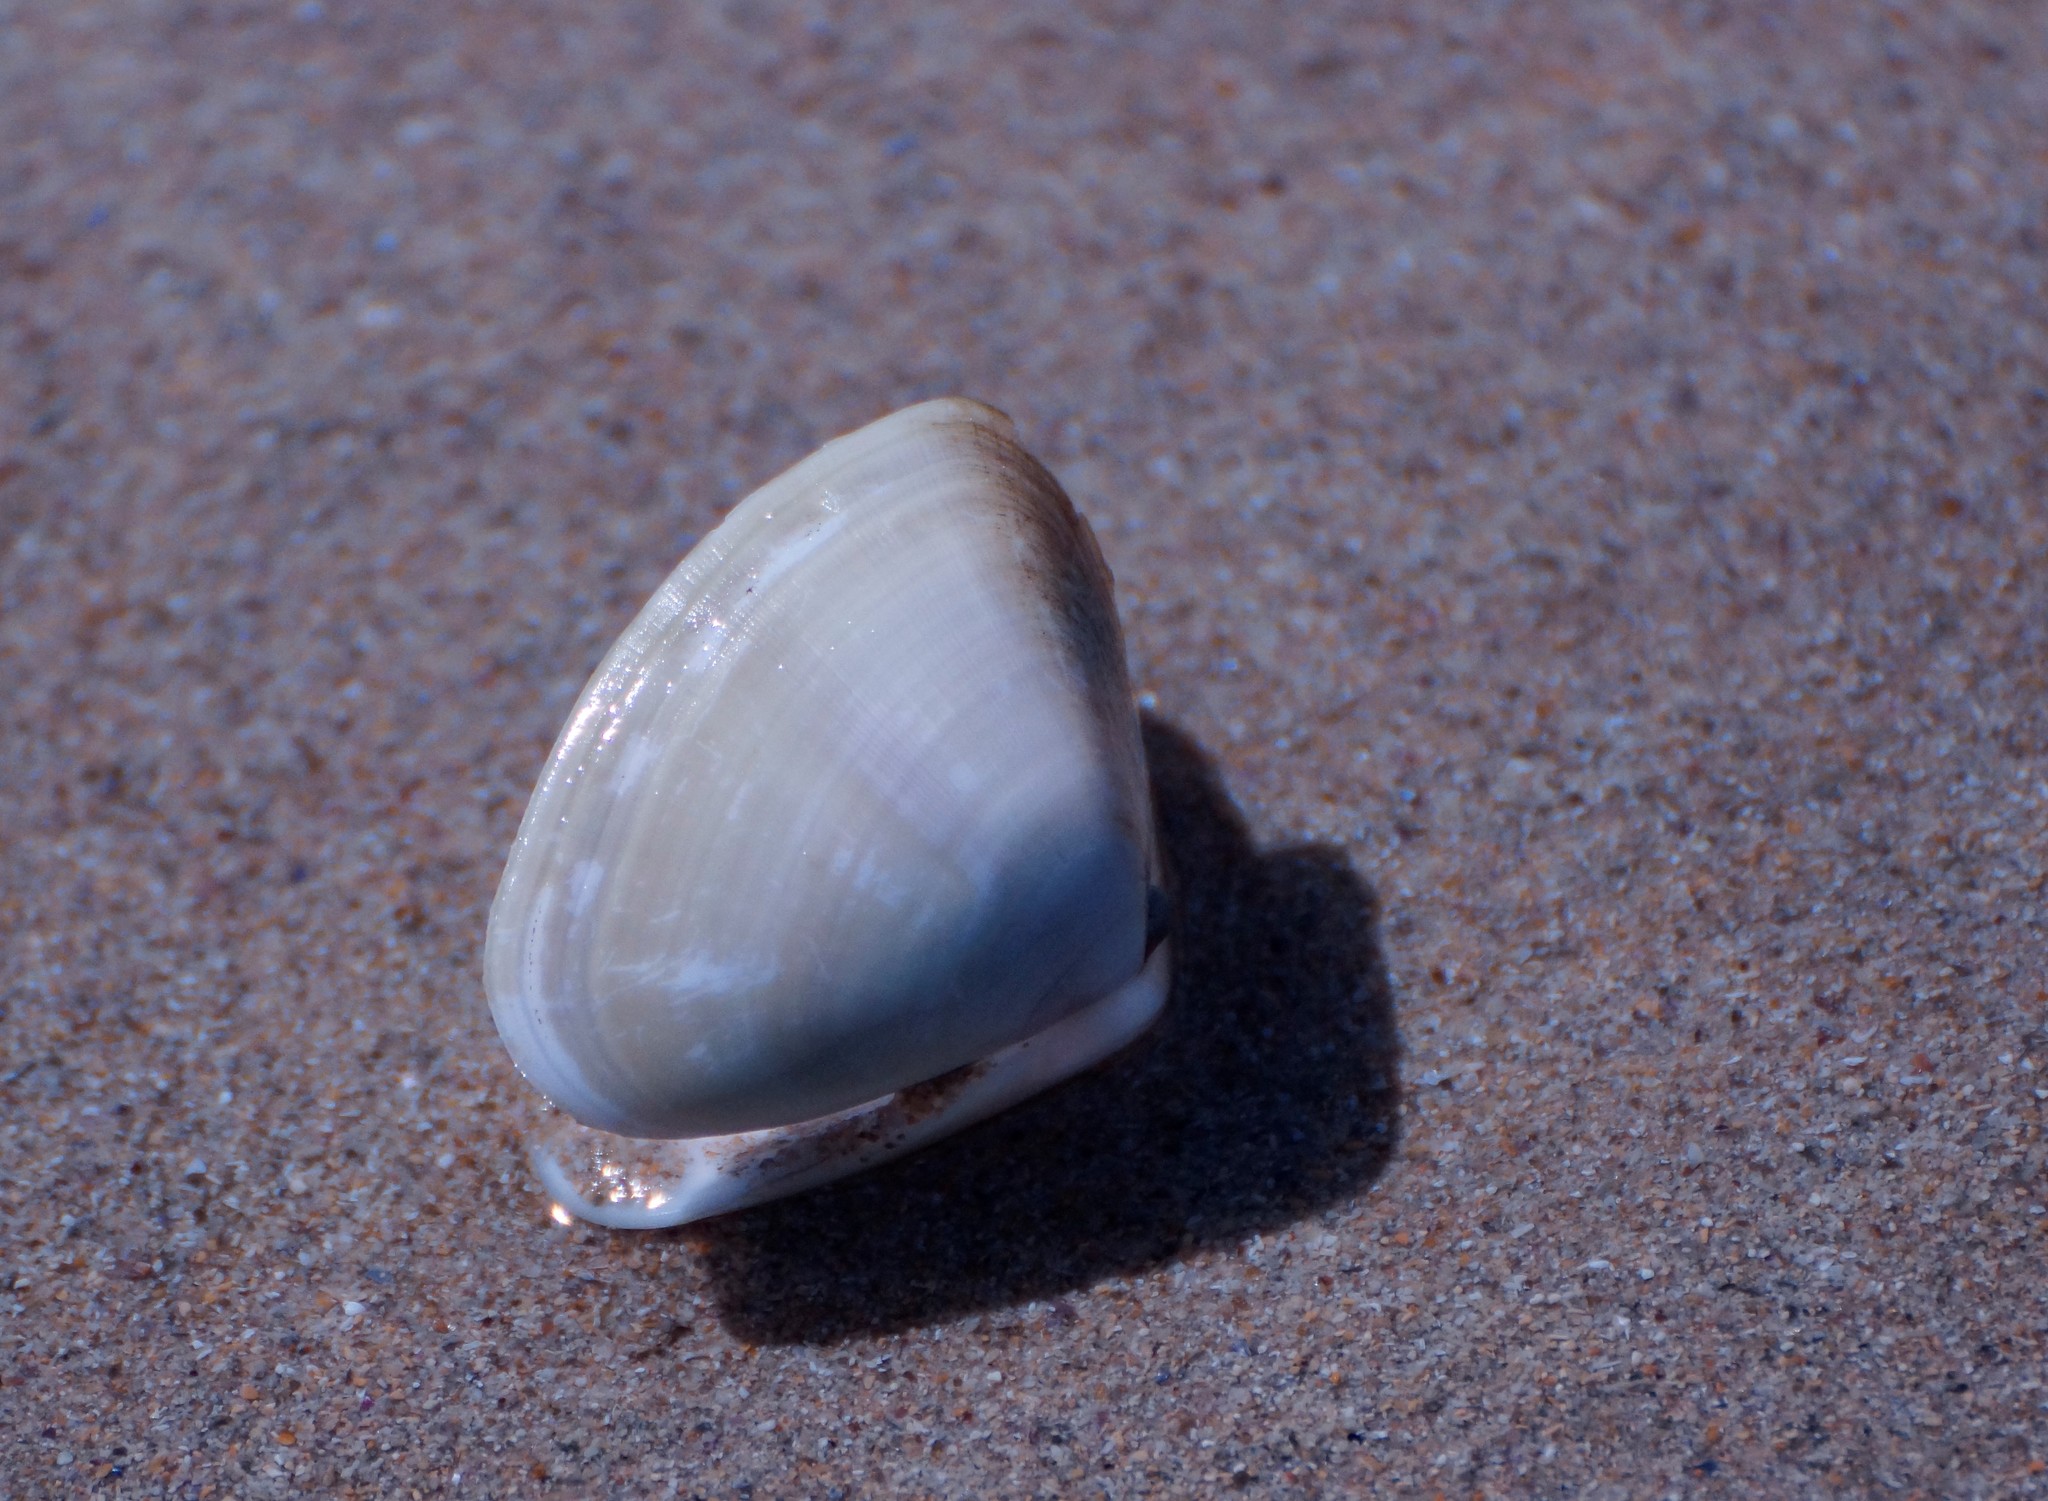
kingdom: Animalia
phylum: Mollusca
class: Bivalvia
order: Cardiida
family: Donacidae
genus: Latona
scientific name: Latona deltoides
